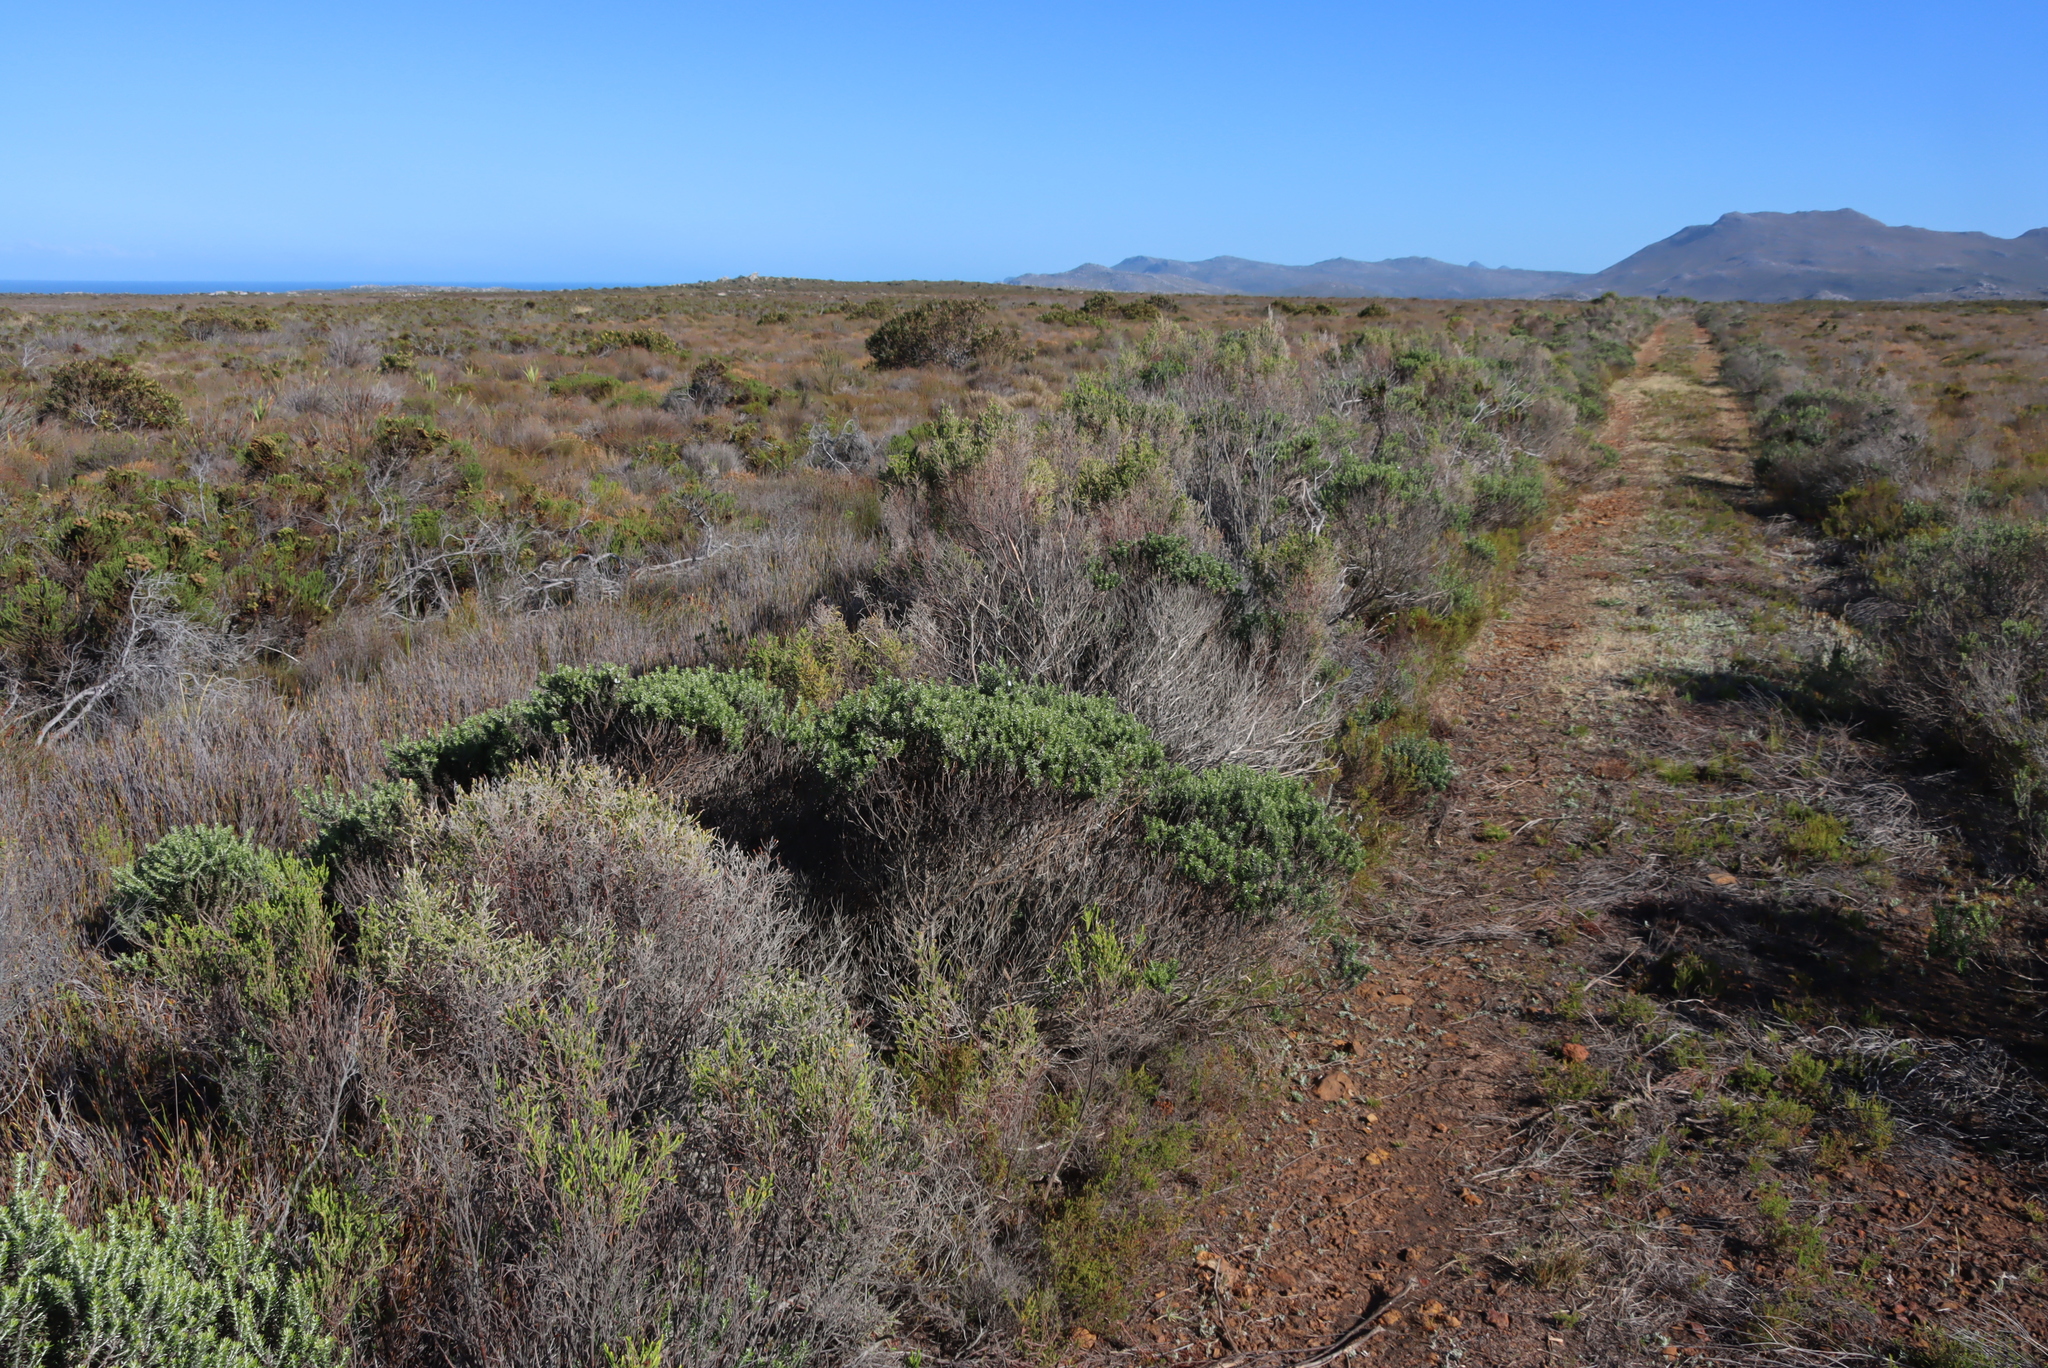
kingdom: Plantae
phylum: Tracheophyta
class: Magnoliopsida
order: Asterales
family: Asteraceae
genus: Metalasia
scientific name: Metalasia densa
